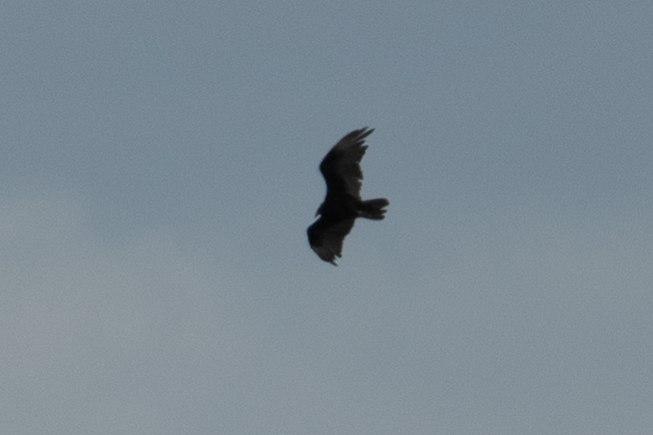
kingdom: Animalia
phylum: Chordata
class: Aves
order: Accipitriformes
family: Cathartidae
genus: Cathartes
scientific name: Cathartes aura
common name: Turkey vulture
